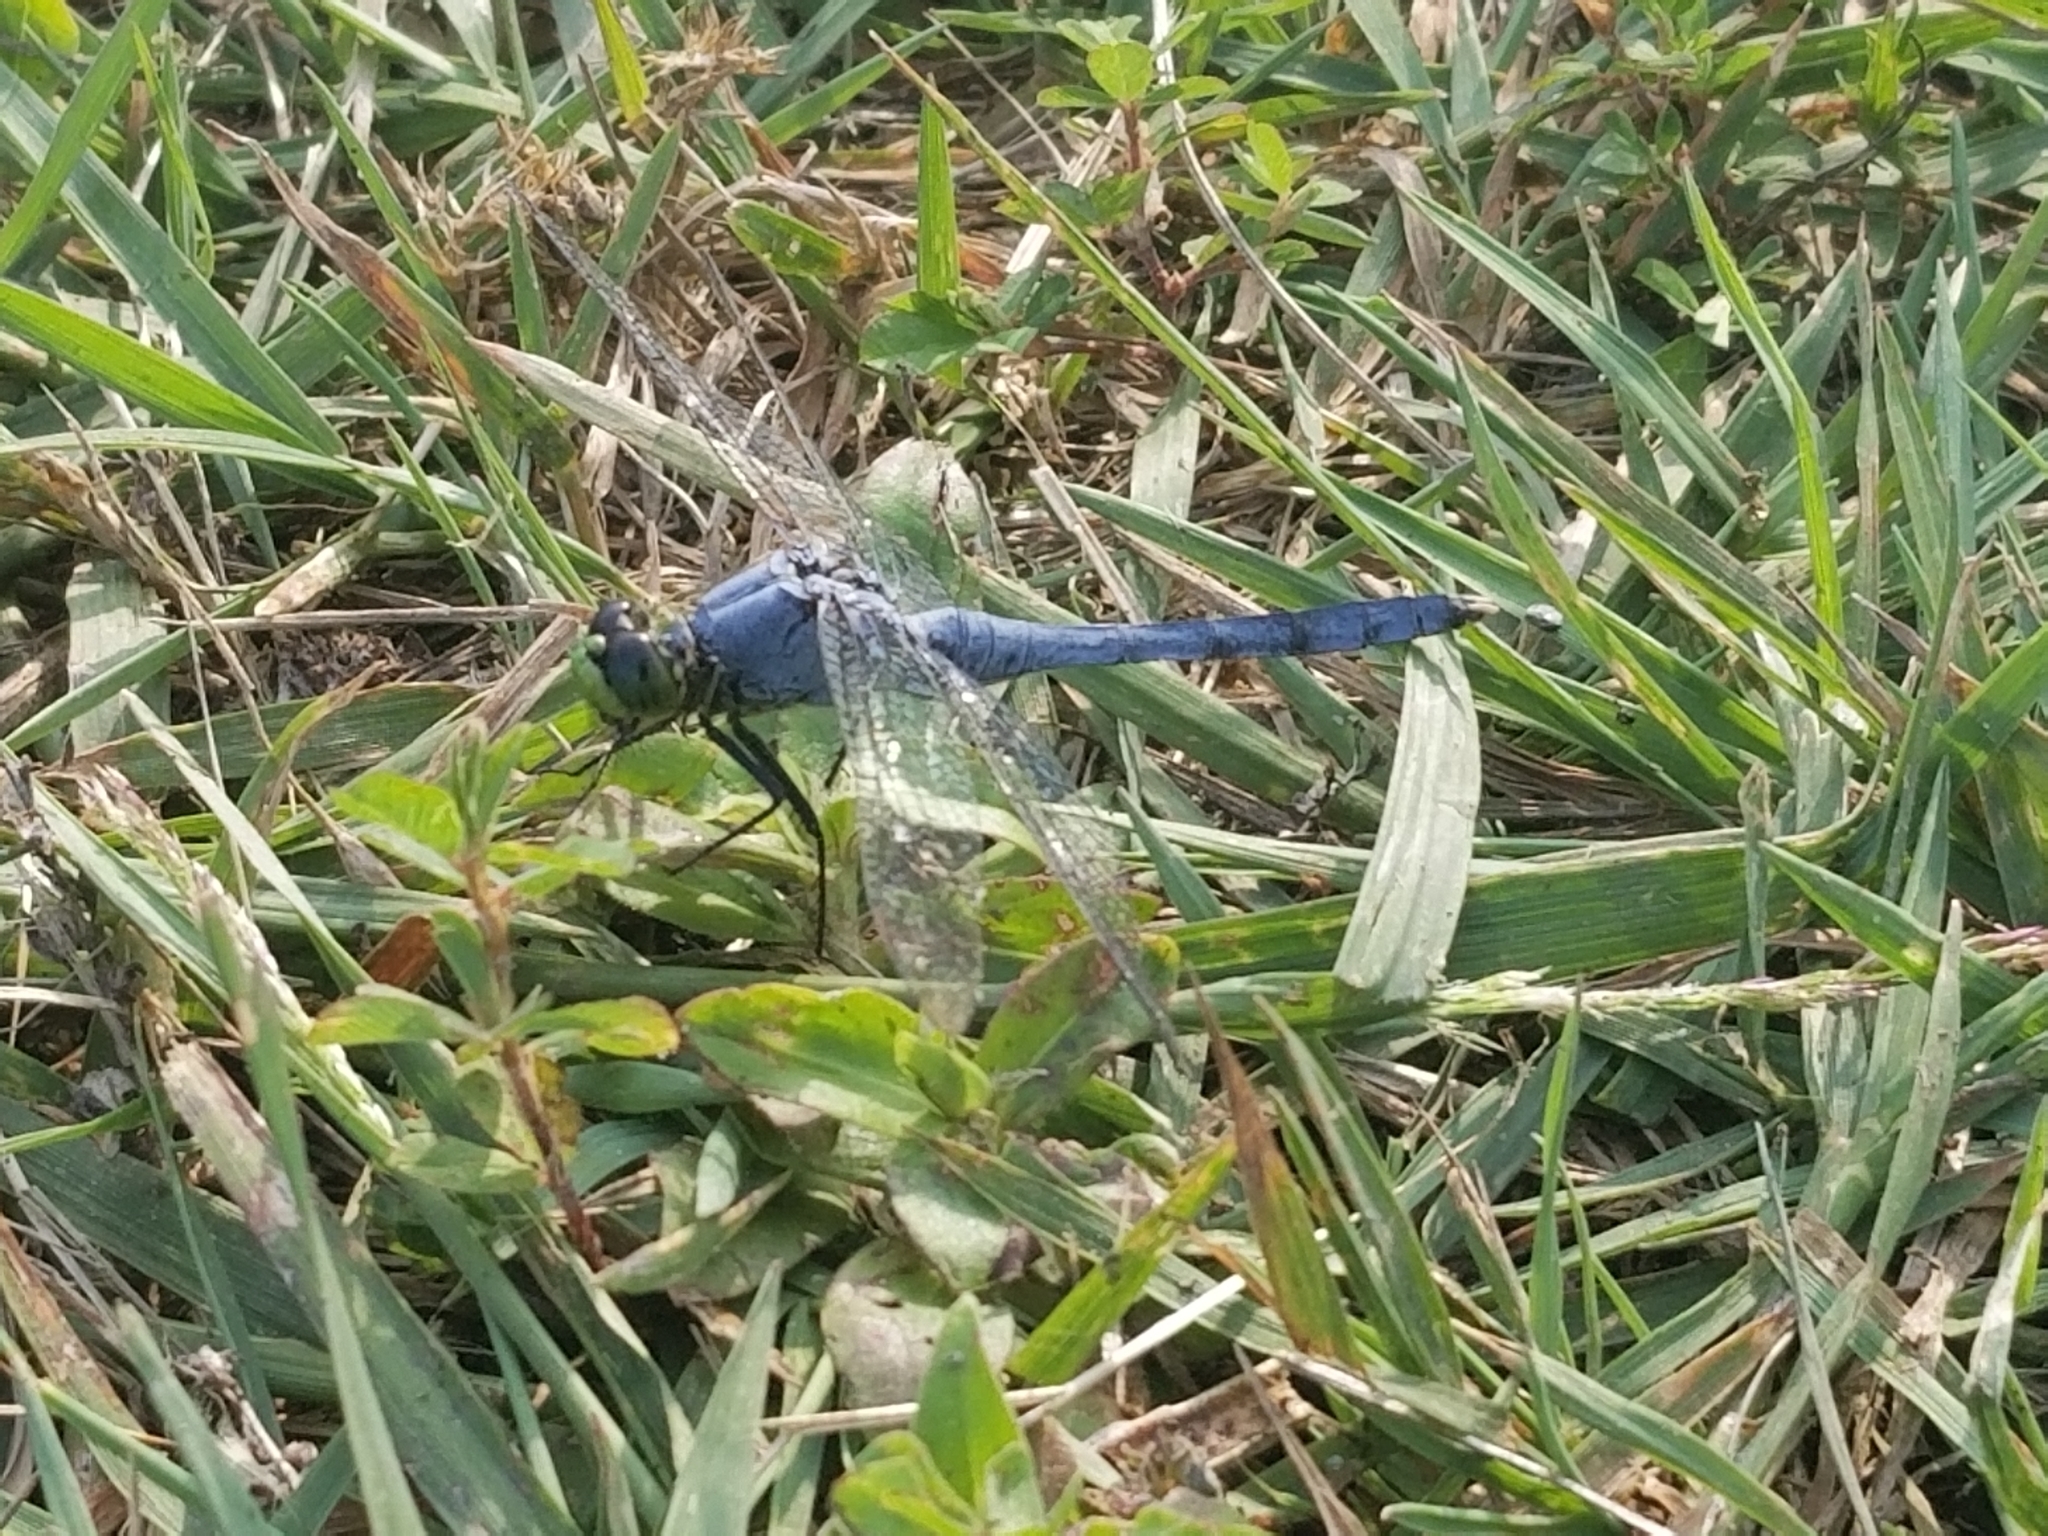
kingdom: Animalia
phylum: Arthropoda
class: Insecta
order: Odonata
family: Libellulidae
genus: Erythemis
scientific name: Erythemis simplicicollis
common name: Eastern pondhawk
